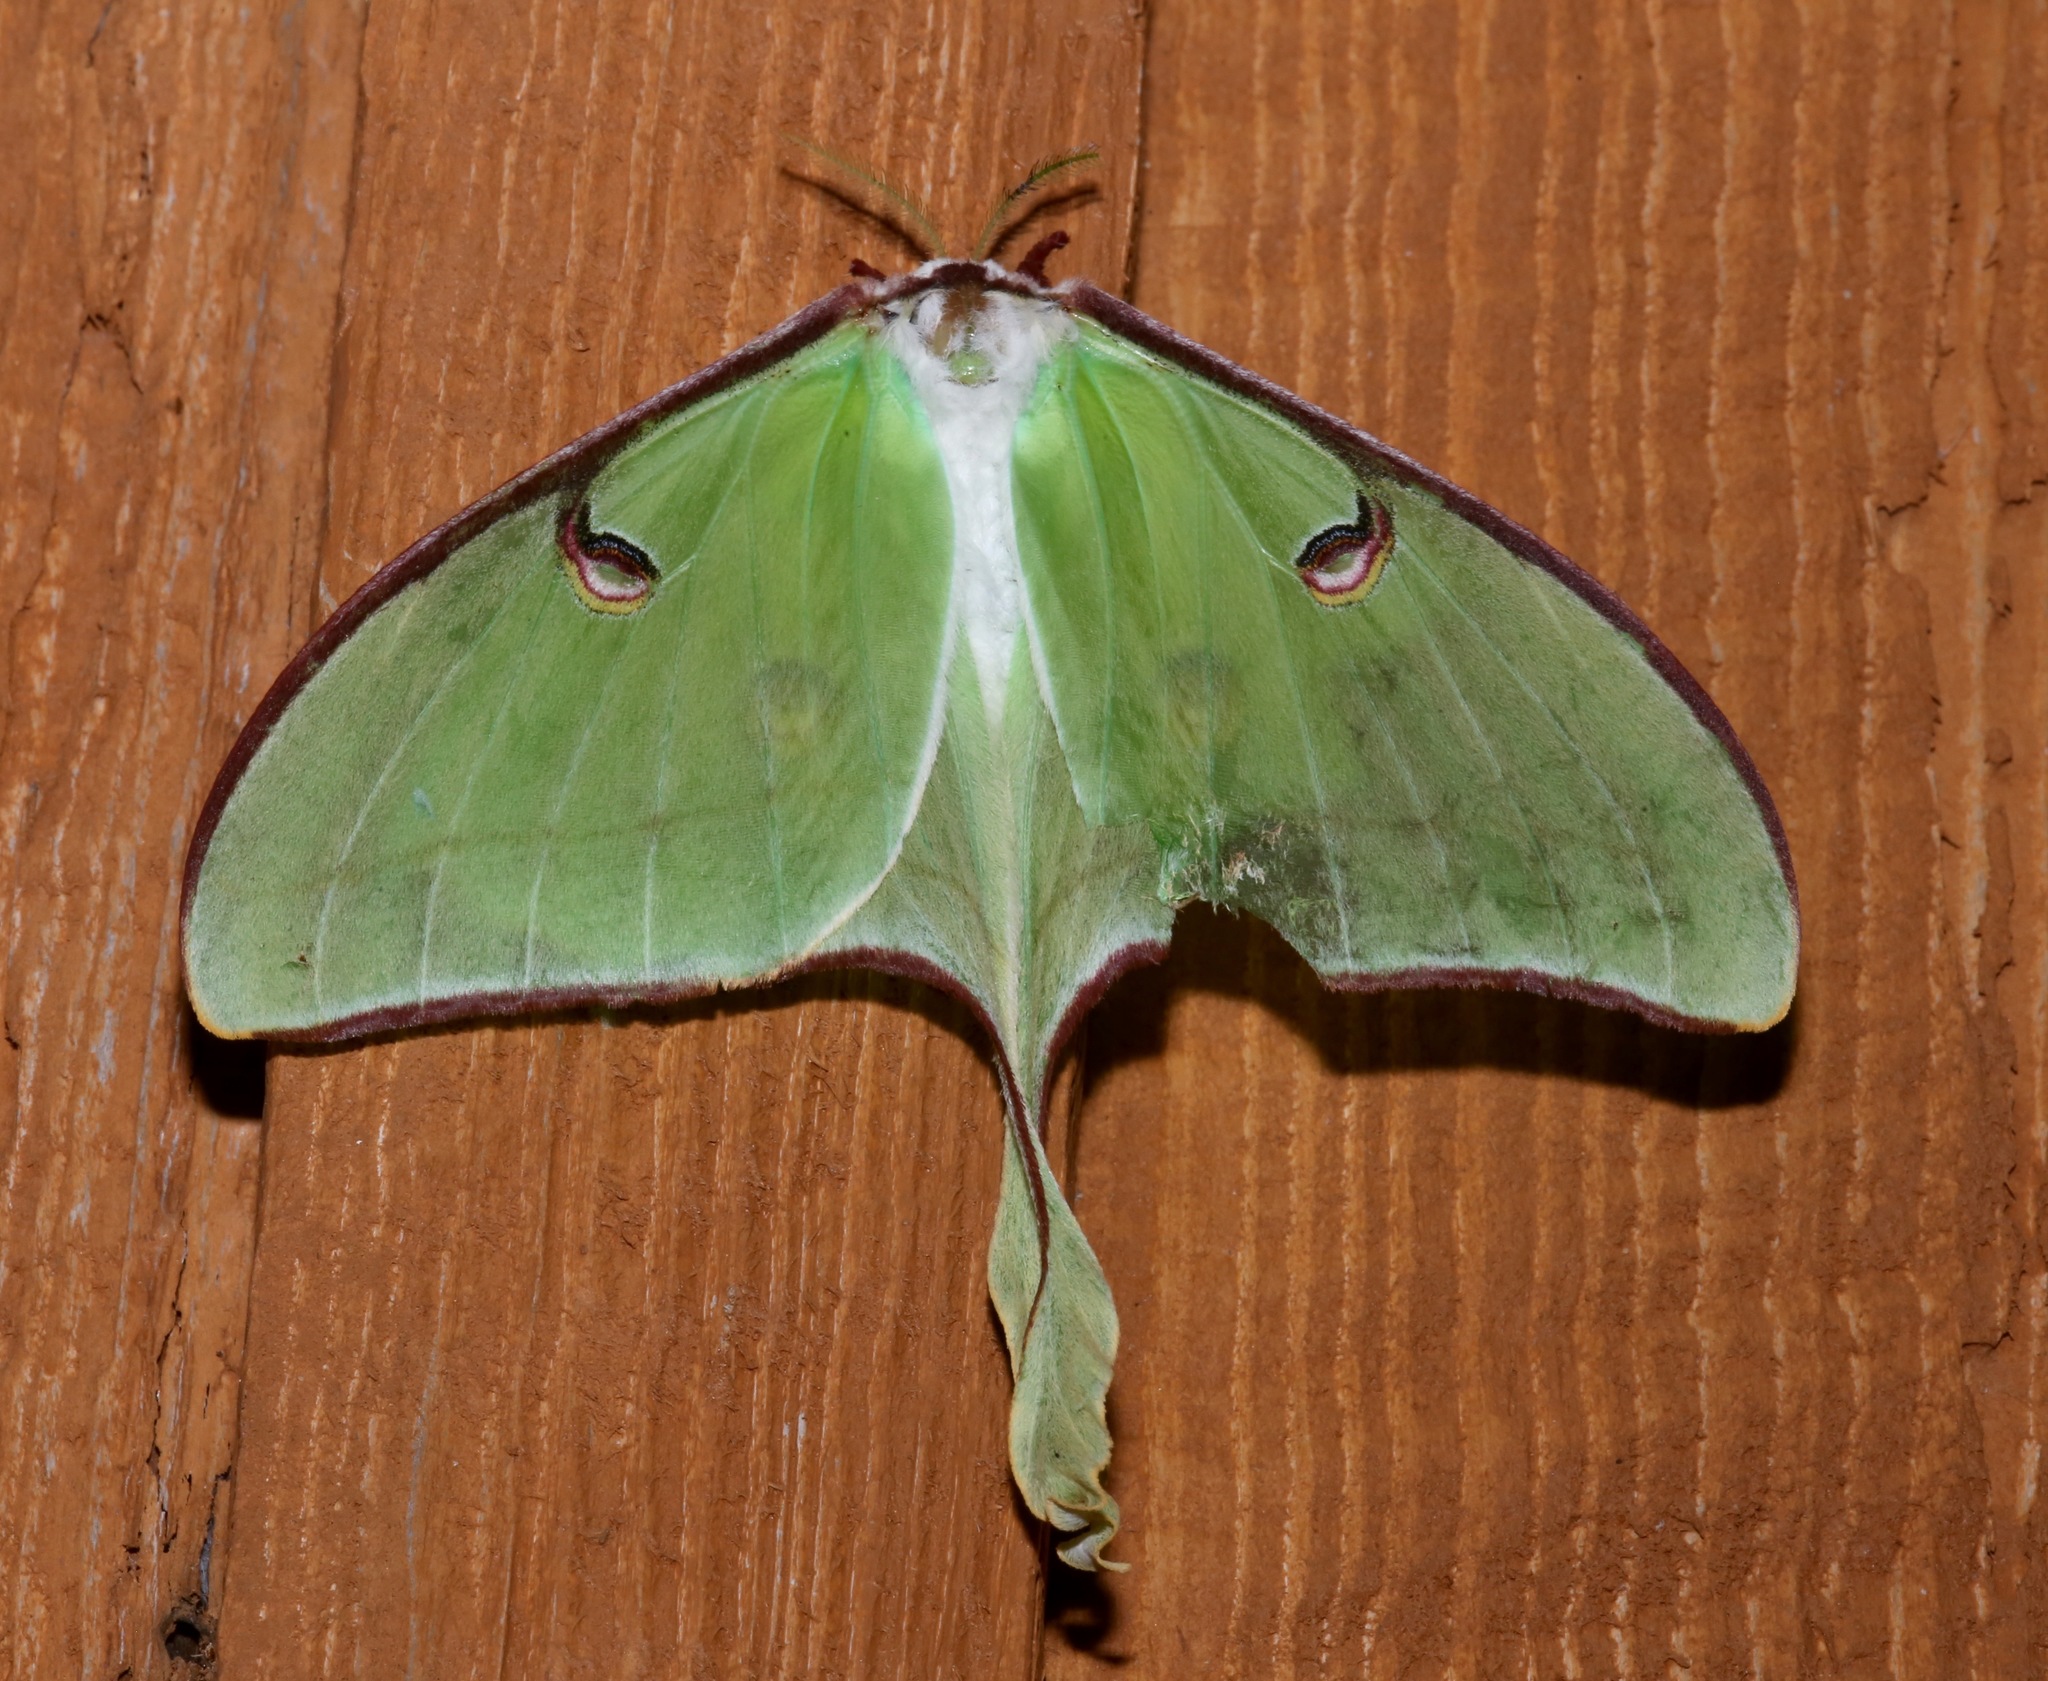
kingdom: Animalia
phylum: Arthropoda
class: Insecta
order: Lepidoptera
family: Saturniidae
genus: Actias
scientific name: Actias luna
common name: Luna moth
